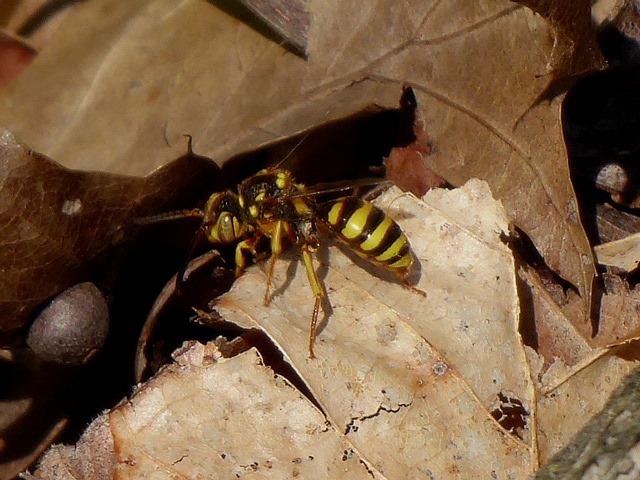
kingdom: Animalia
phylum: Arthropoda
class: Insecta
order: Hymenoptera
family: Apidae
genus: Nomada
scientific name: Nomada luteoloides
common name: Black-and-yellow nomad bee
